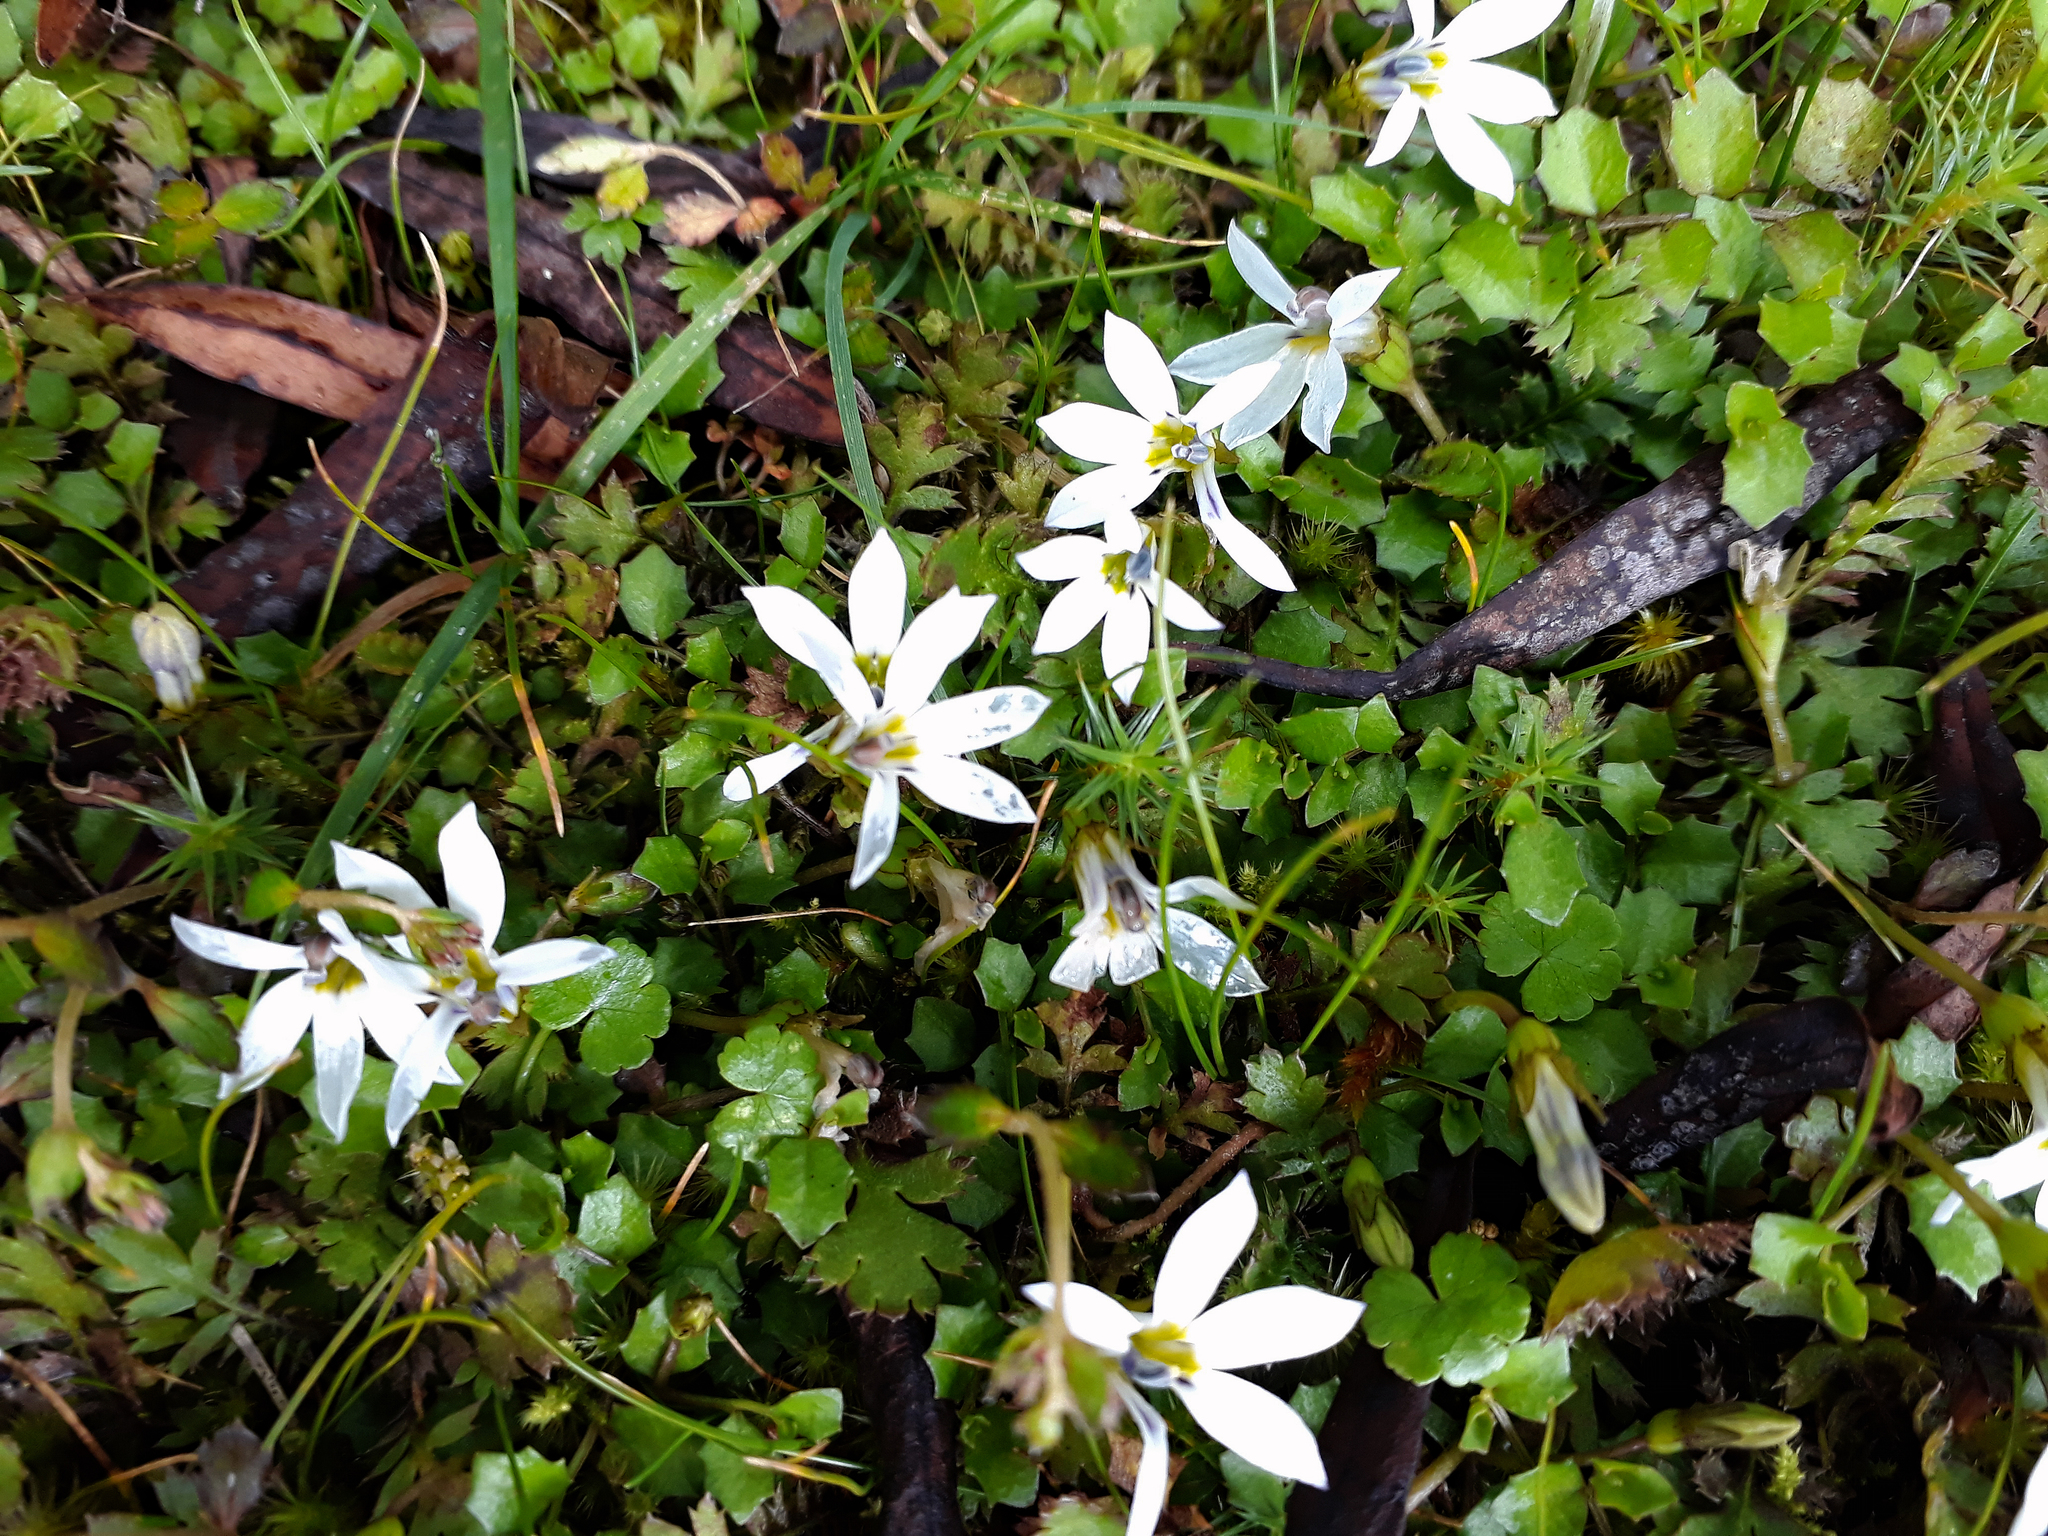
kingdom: Plantae
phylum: Tracheophyta
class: Magnoliopsida
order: Asterales
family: Campanulaceae
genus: Lobelia
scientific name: Lobelia angulata
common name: Lawn lobelia
